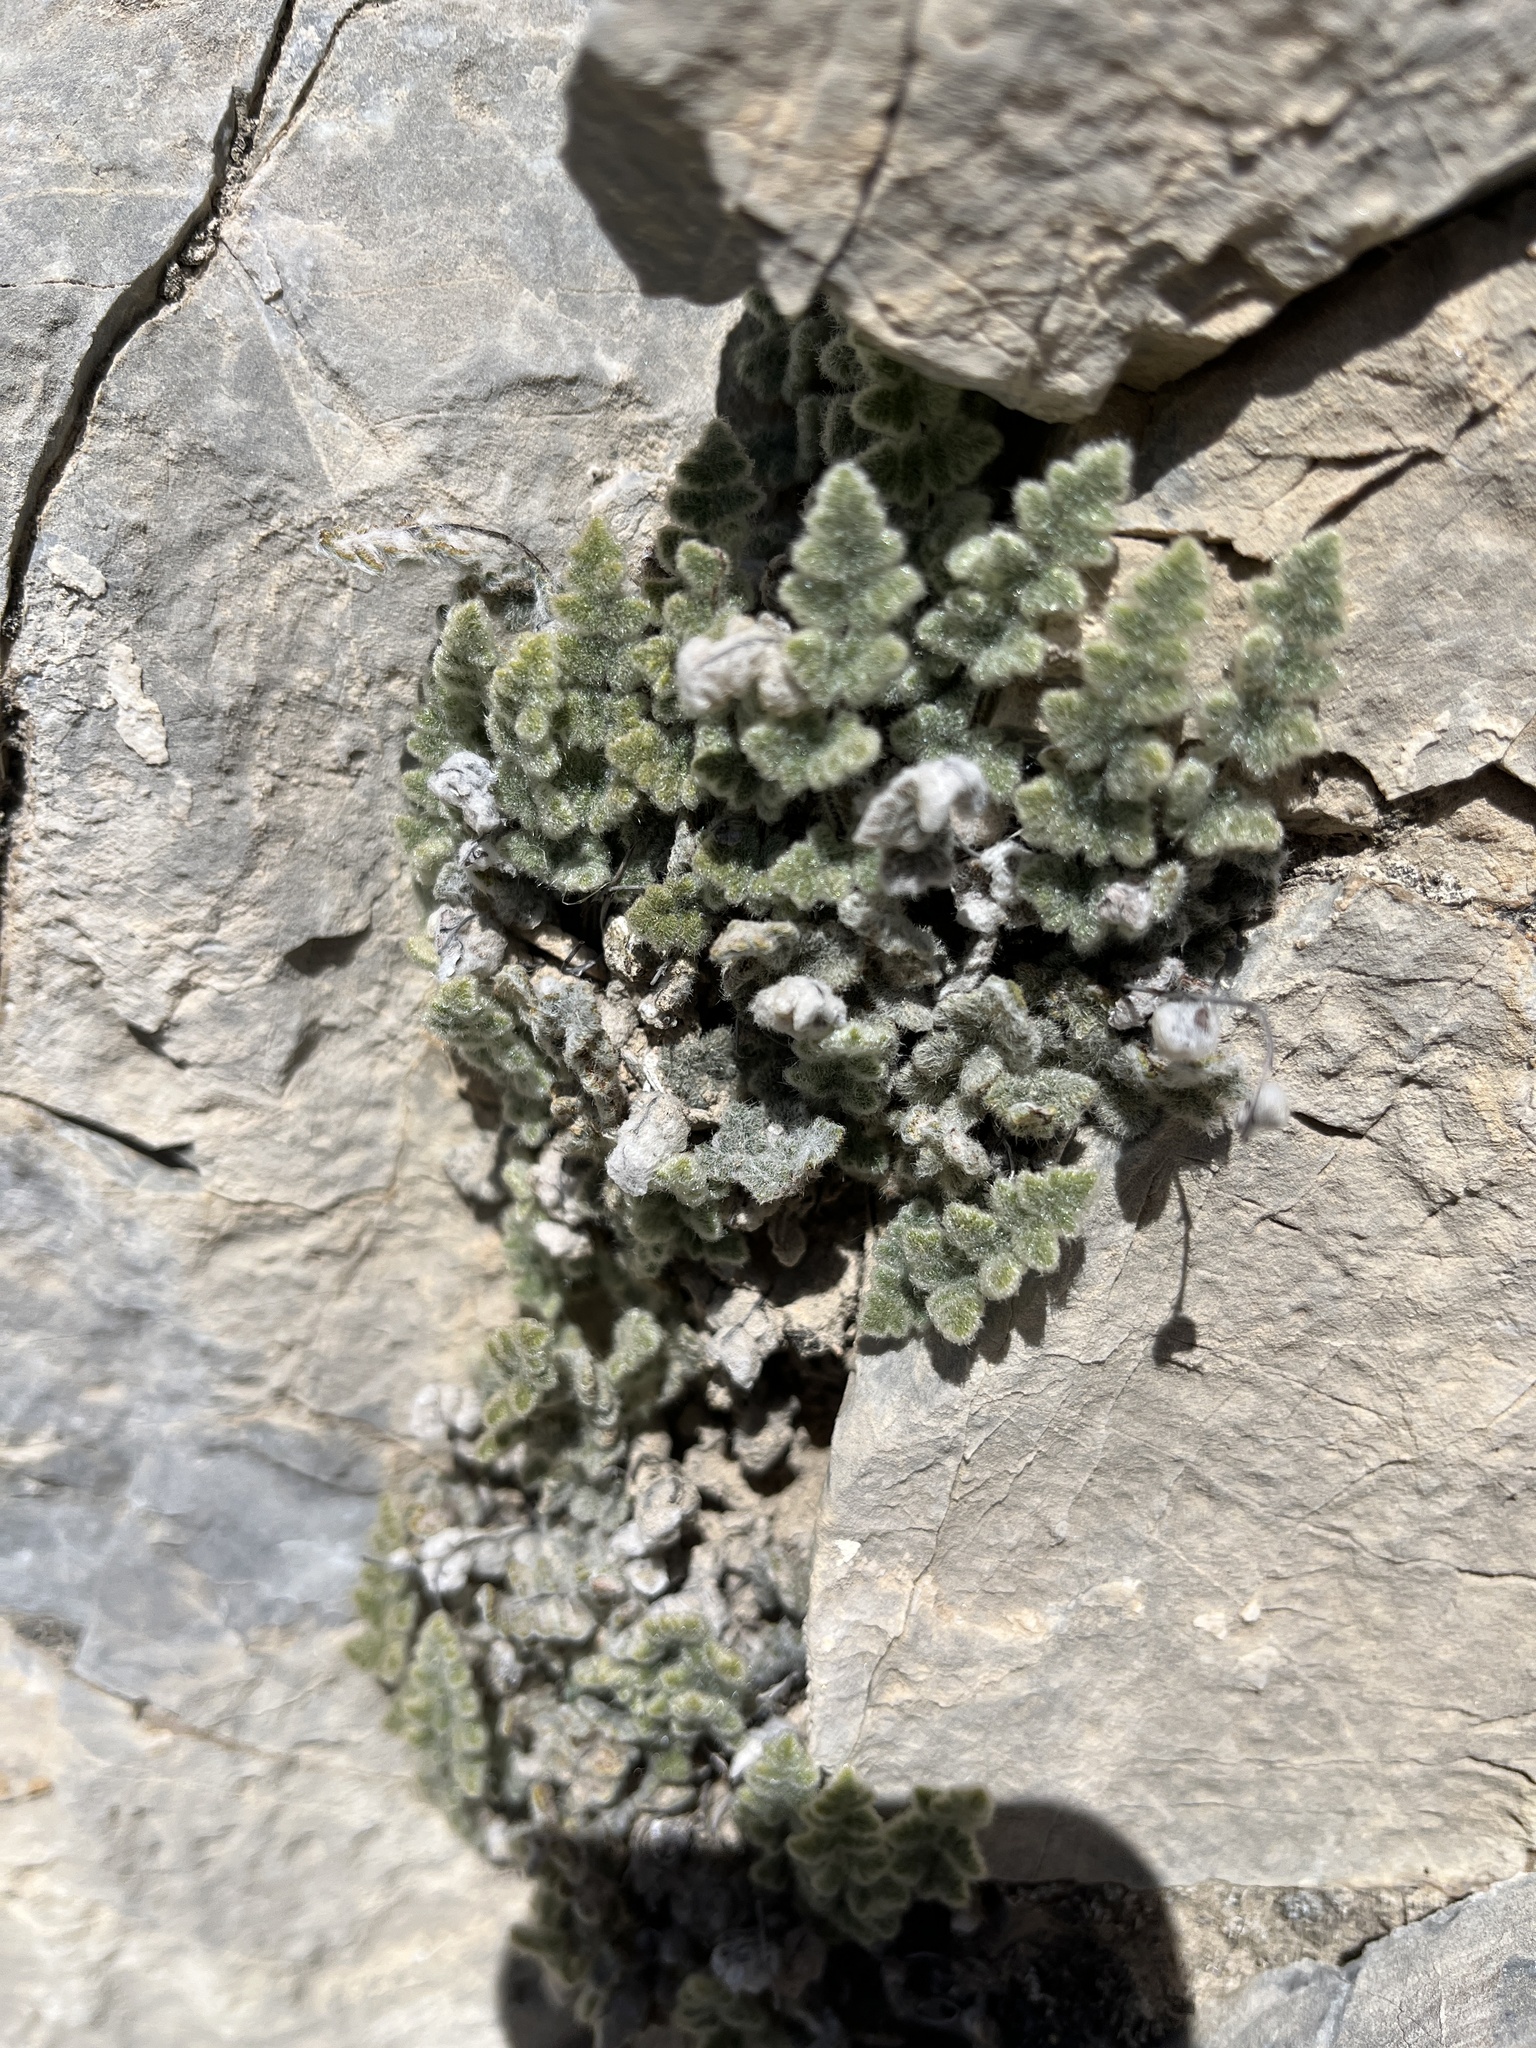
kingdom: Plantae
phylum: Tracheophyta
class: Polypodiopsida
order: Polypodiales
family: Pteridaceae
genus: Myriopteris
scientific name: Myriopteris parryi
